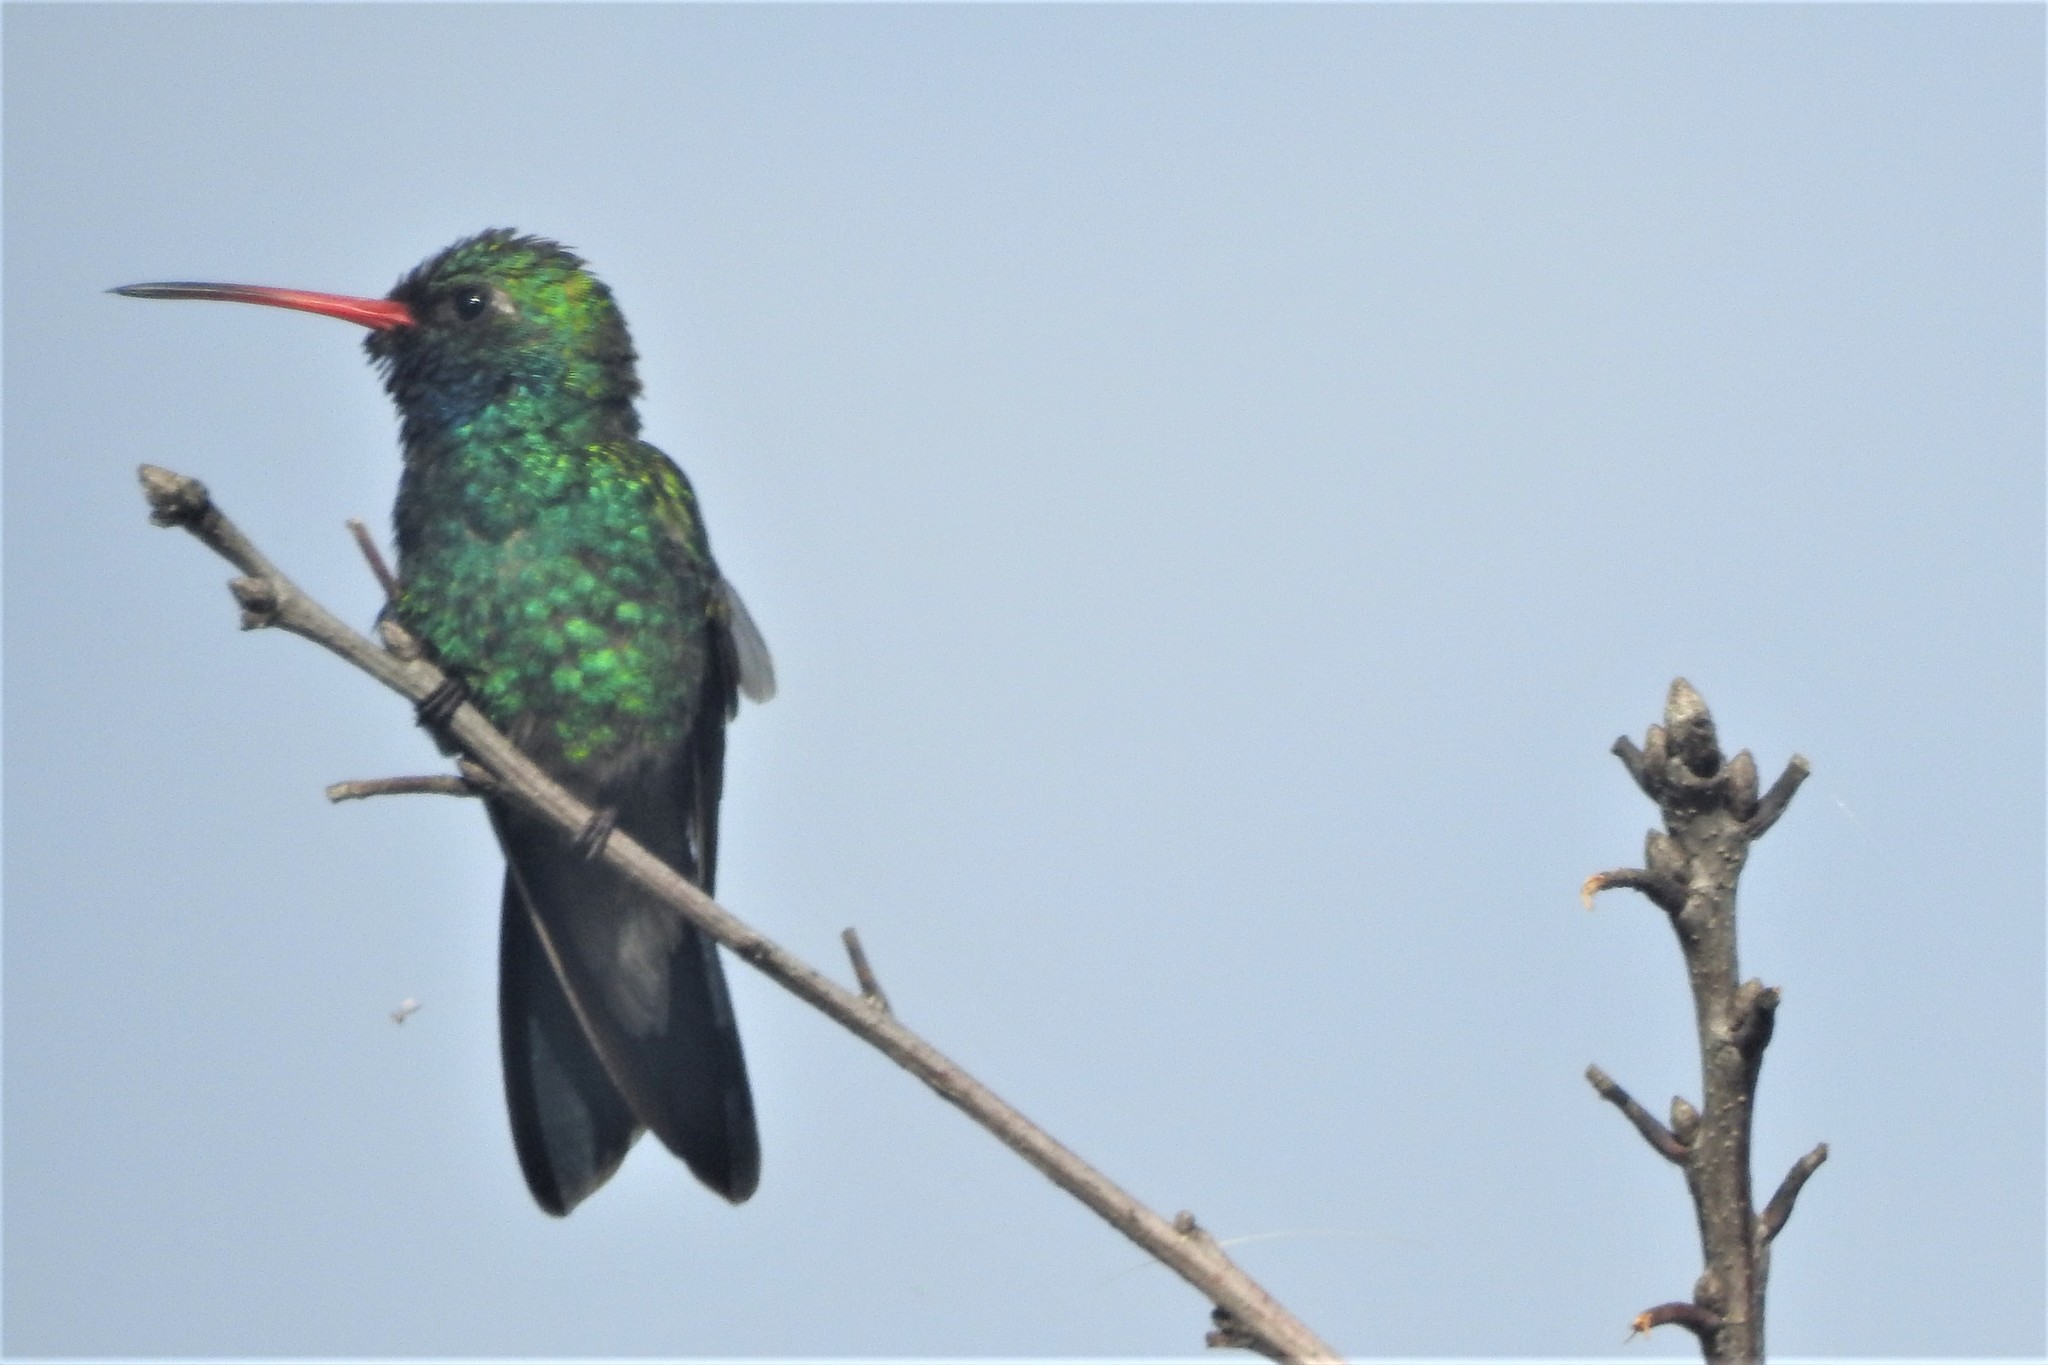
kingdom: Animalia
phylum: Chordata
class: Aves
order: Apodiformes
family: Trochilidae
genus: Cynanthus
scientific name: Cynanthus latirostris
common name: Broad-billed hummingbird
